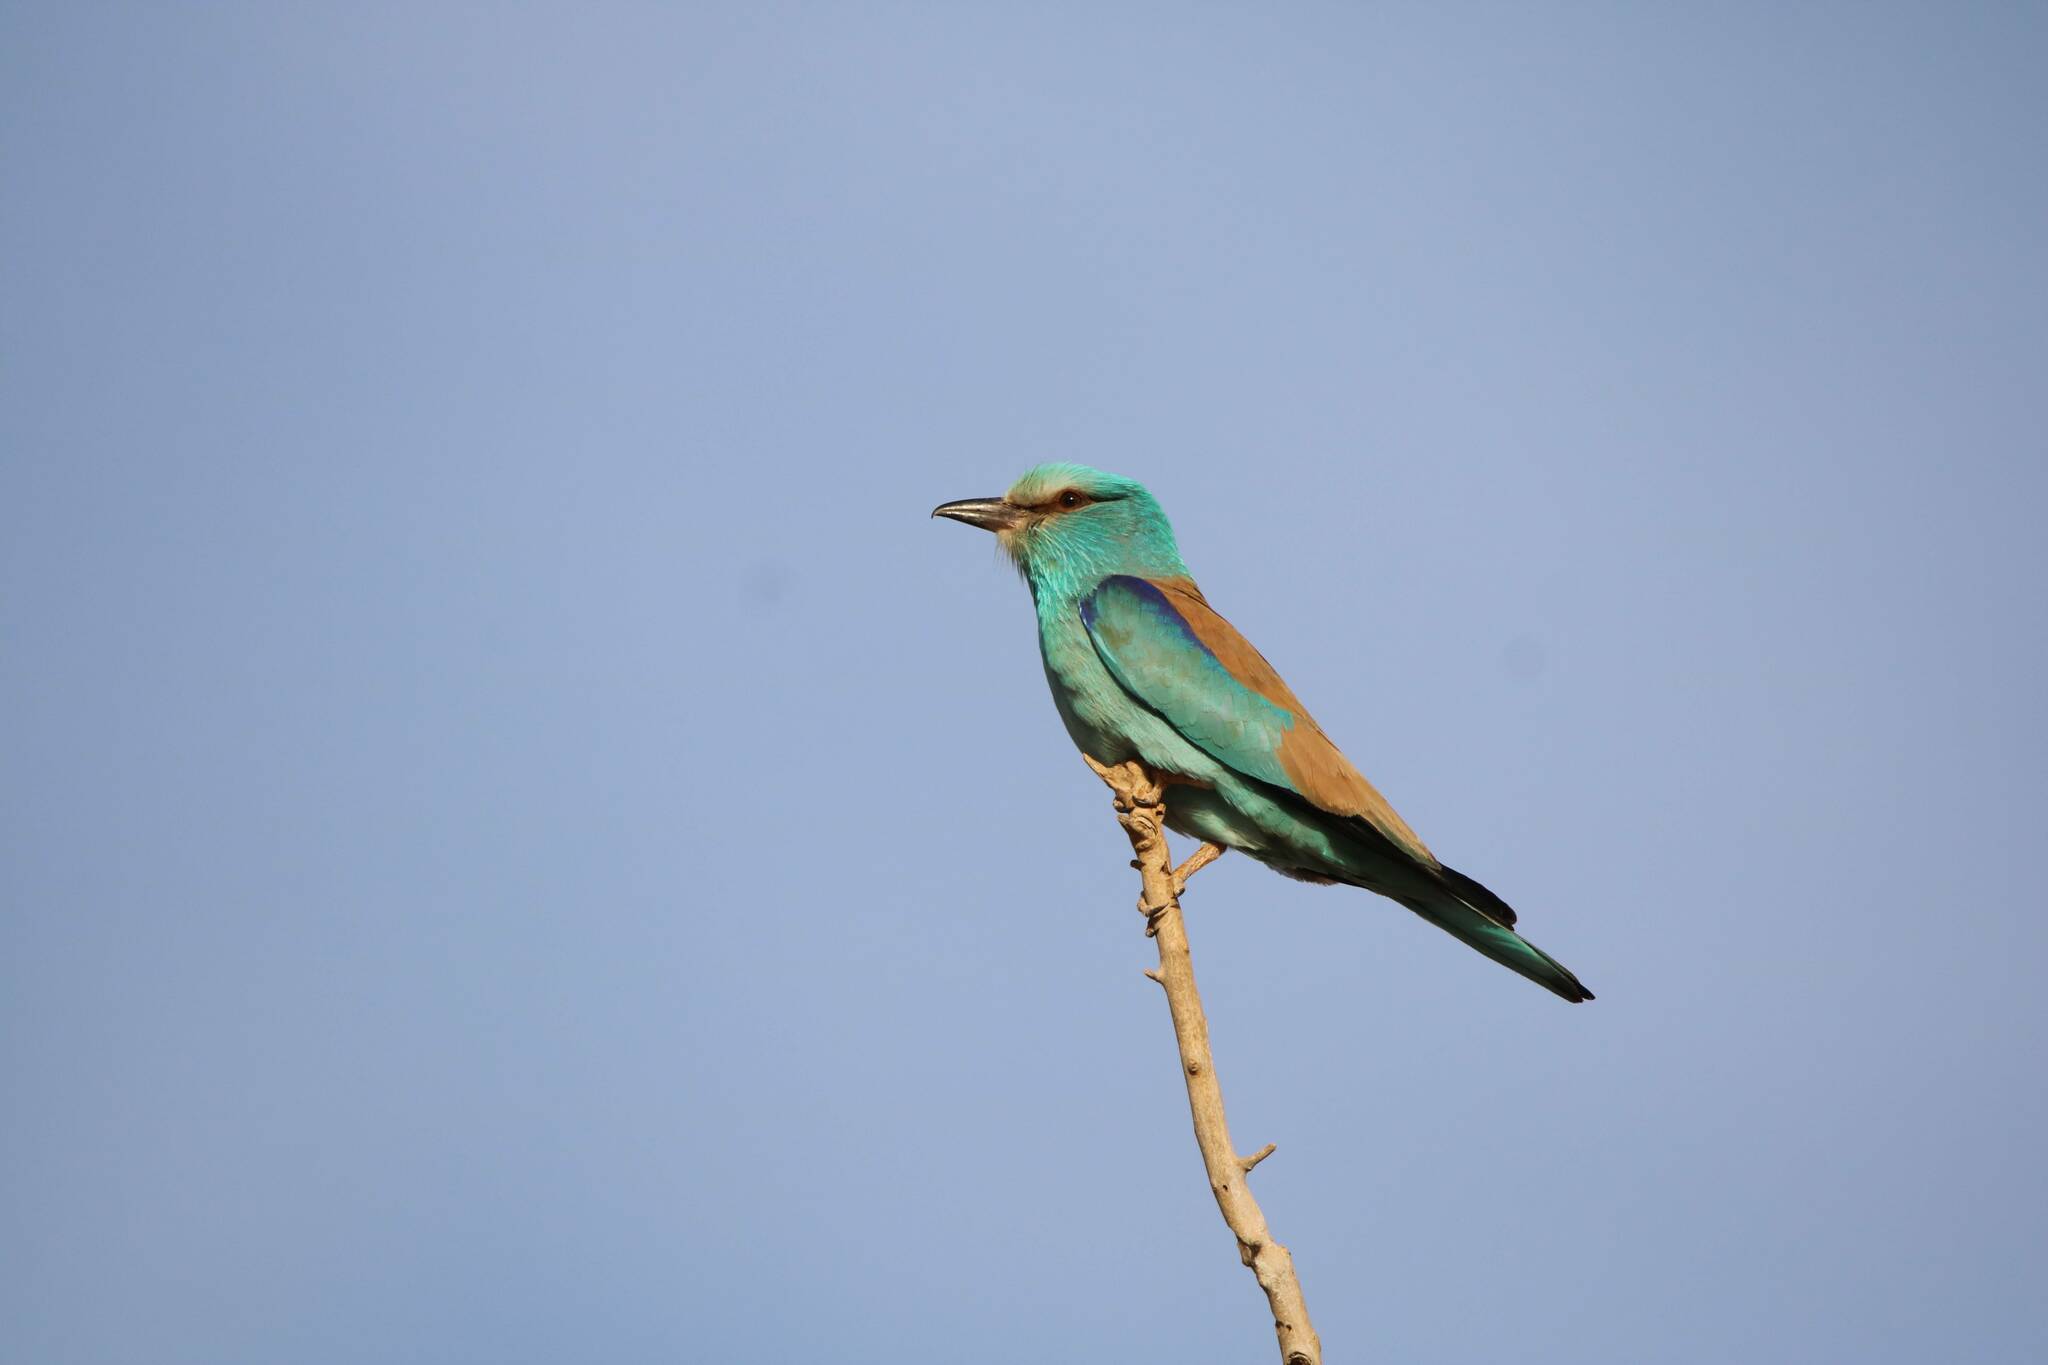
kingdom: Animalia
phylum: Chordata
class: Aves
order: Coraciiformes
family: Coraciidae
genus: Coracias
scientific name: Coracias garrulus
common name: European roller
